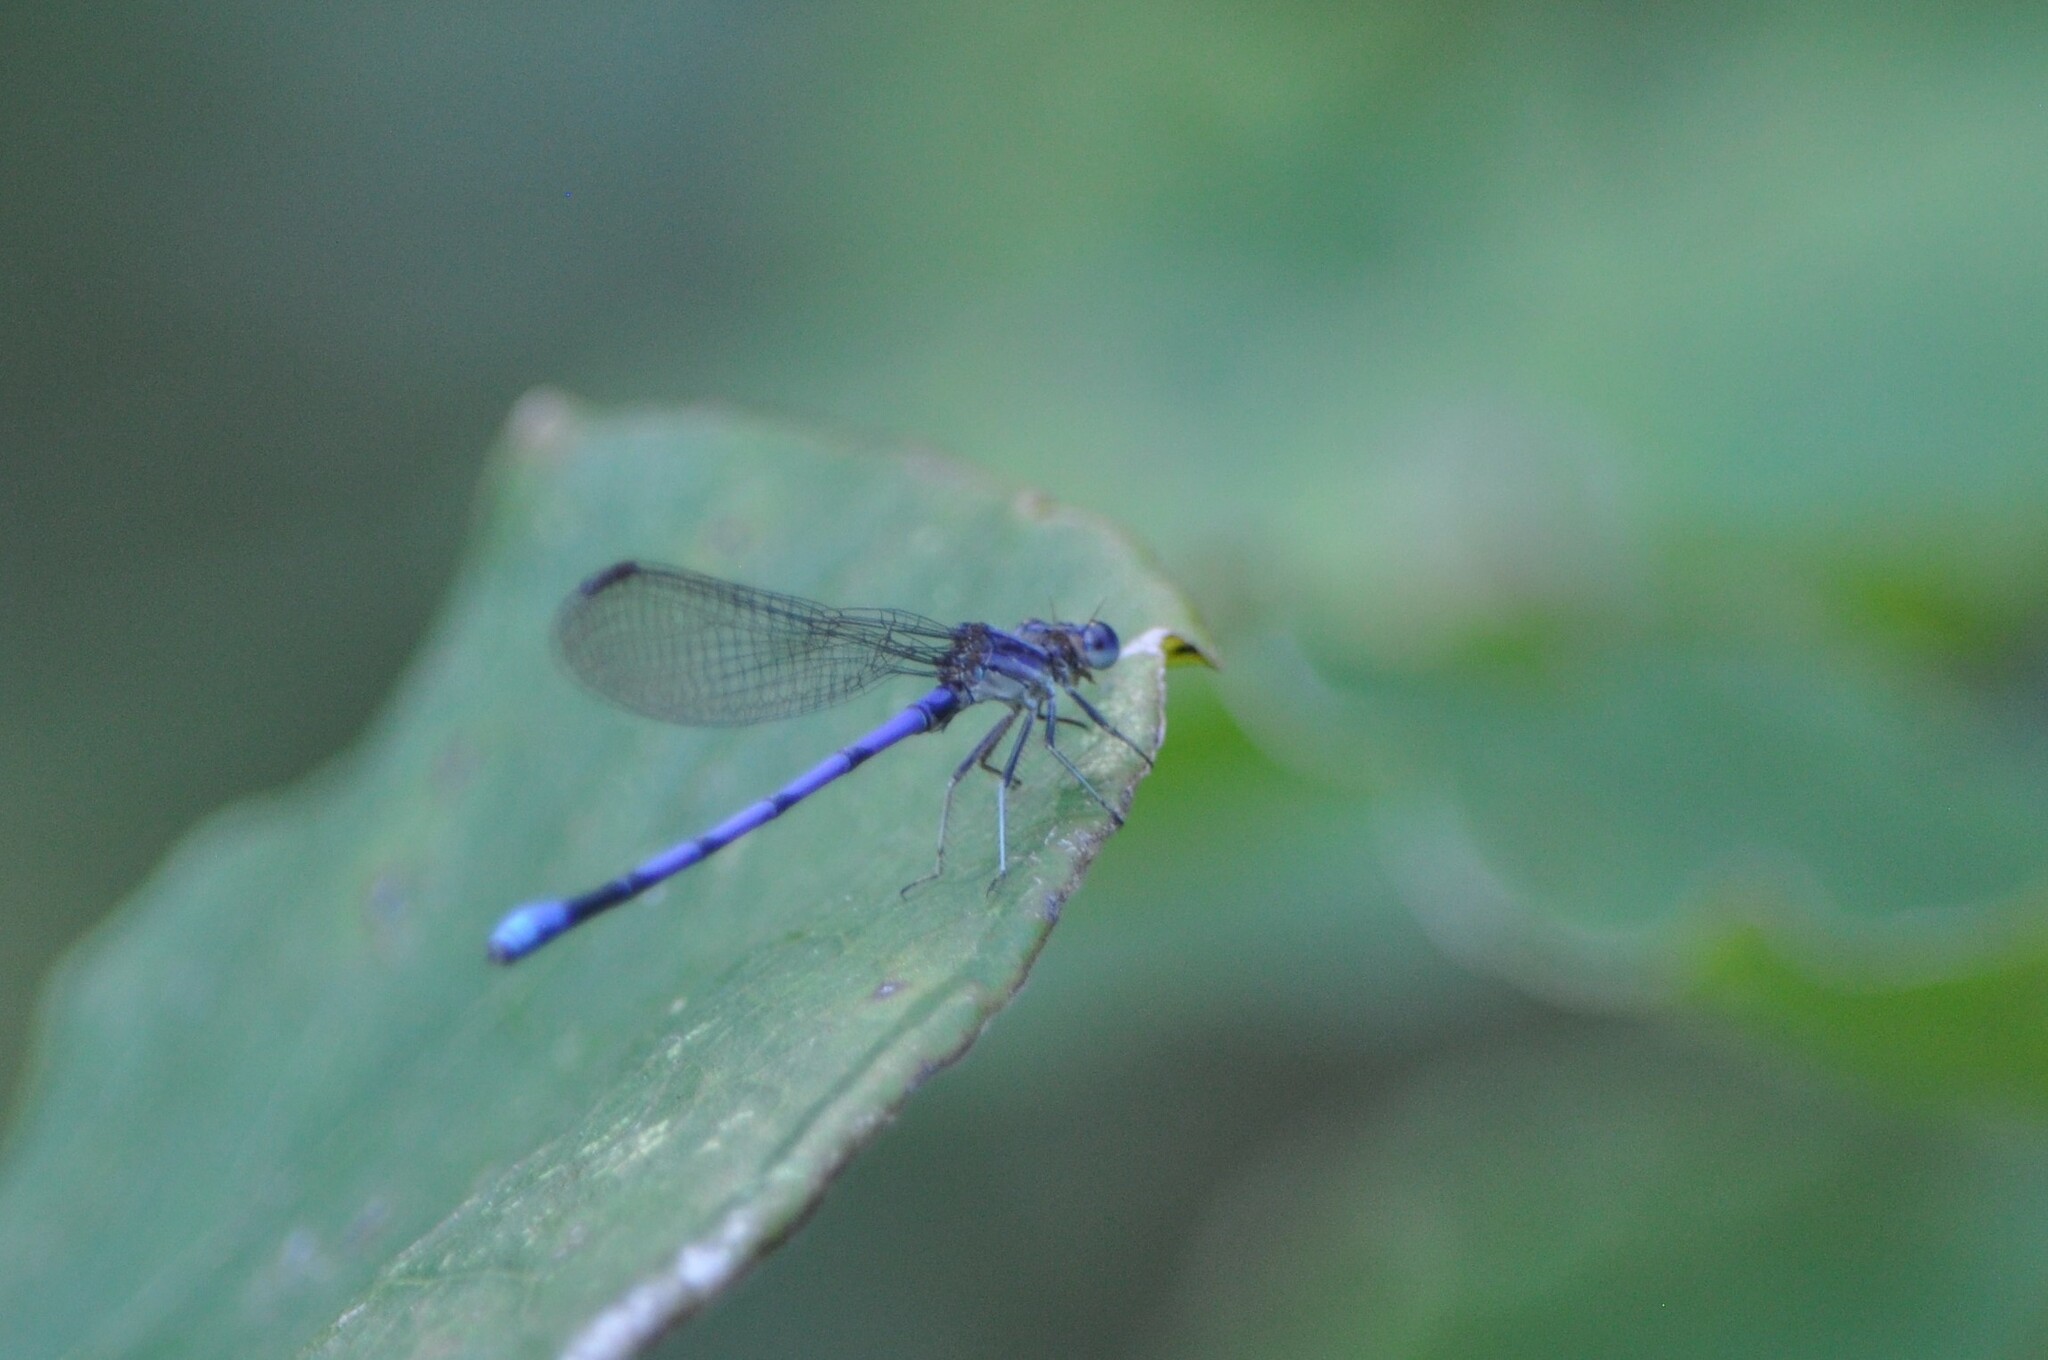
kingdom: Animalia
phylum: Arthropoda
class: Insecta
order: Odonata
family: Coenagrionidae
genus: Argia
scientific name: Argia fumipennis
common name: Variable dancer
